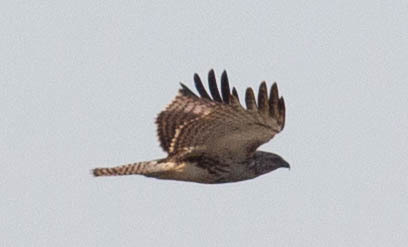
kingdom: Animalia
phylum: Chordata
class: Aves
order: Accipitriformes
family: Accipitridae
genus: Buteo
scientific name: Buteo jamaicensis
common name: Red-tailed hawk
